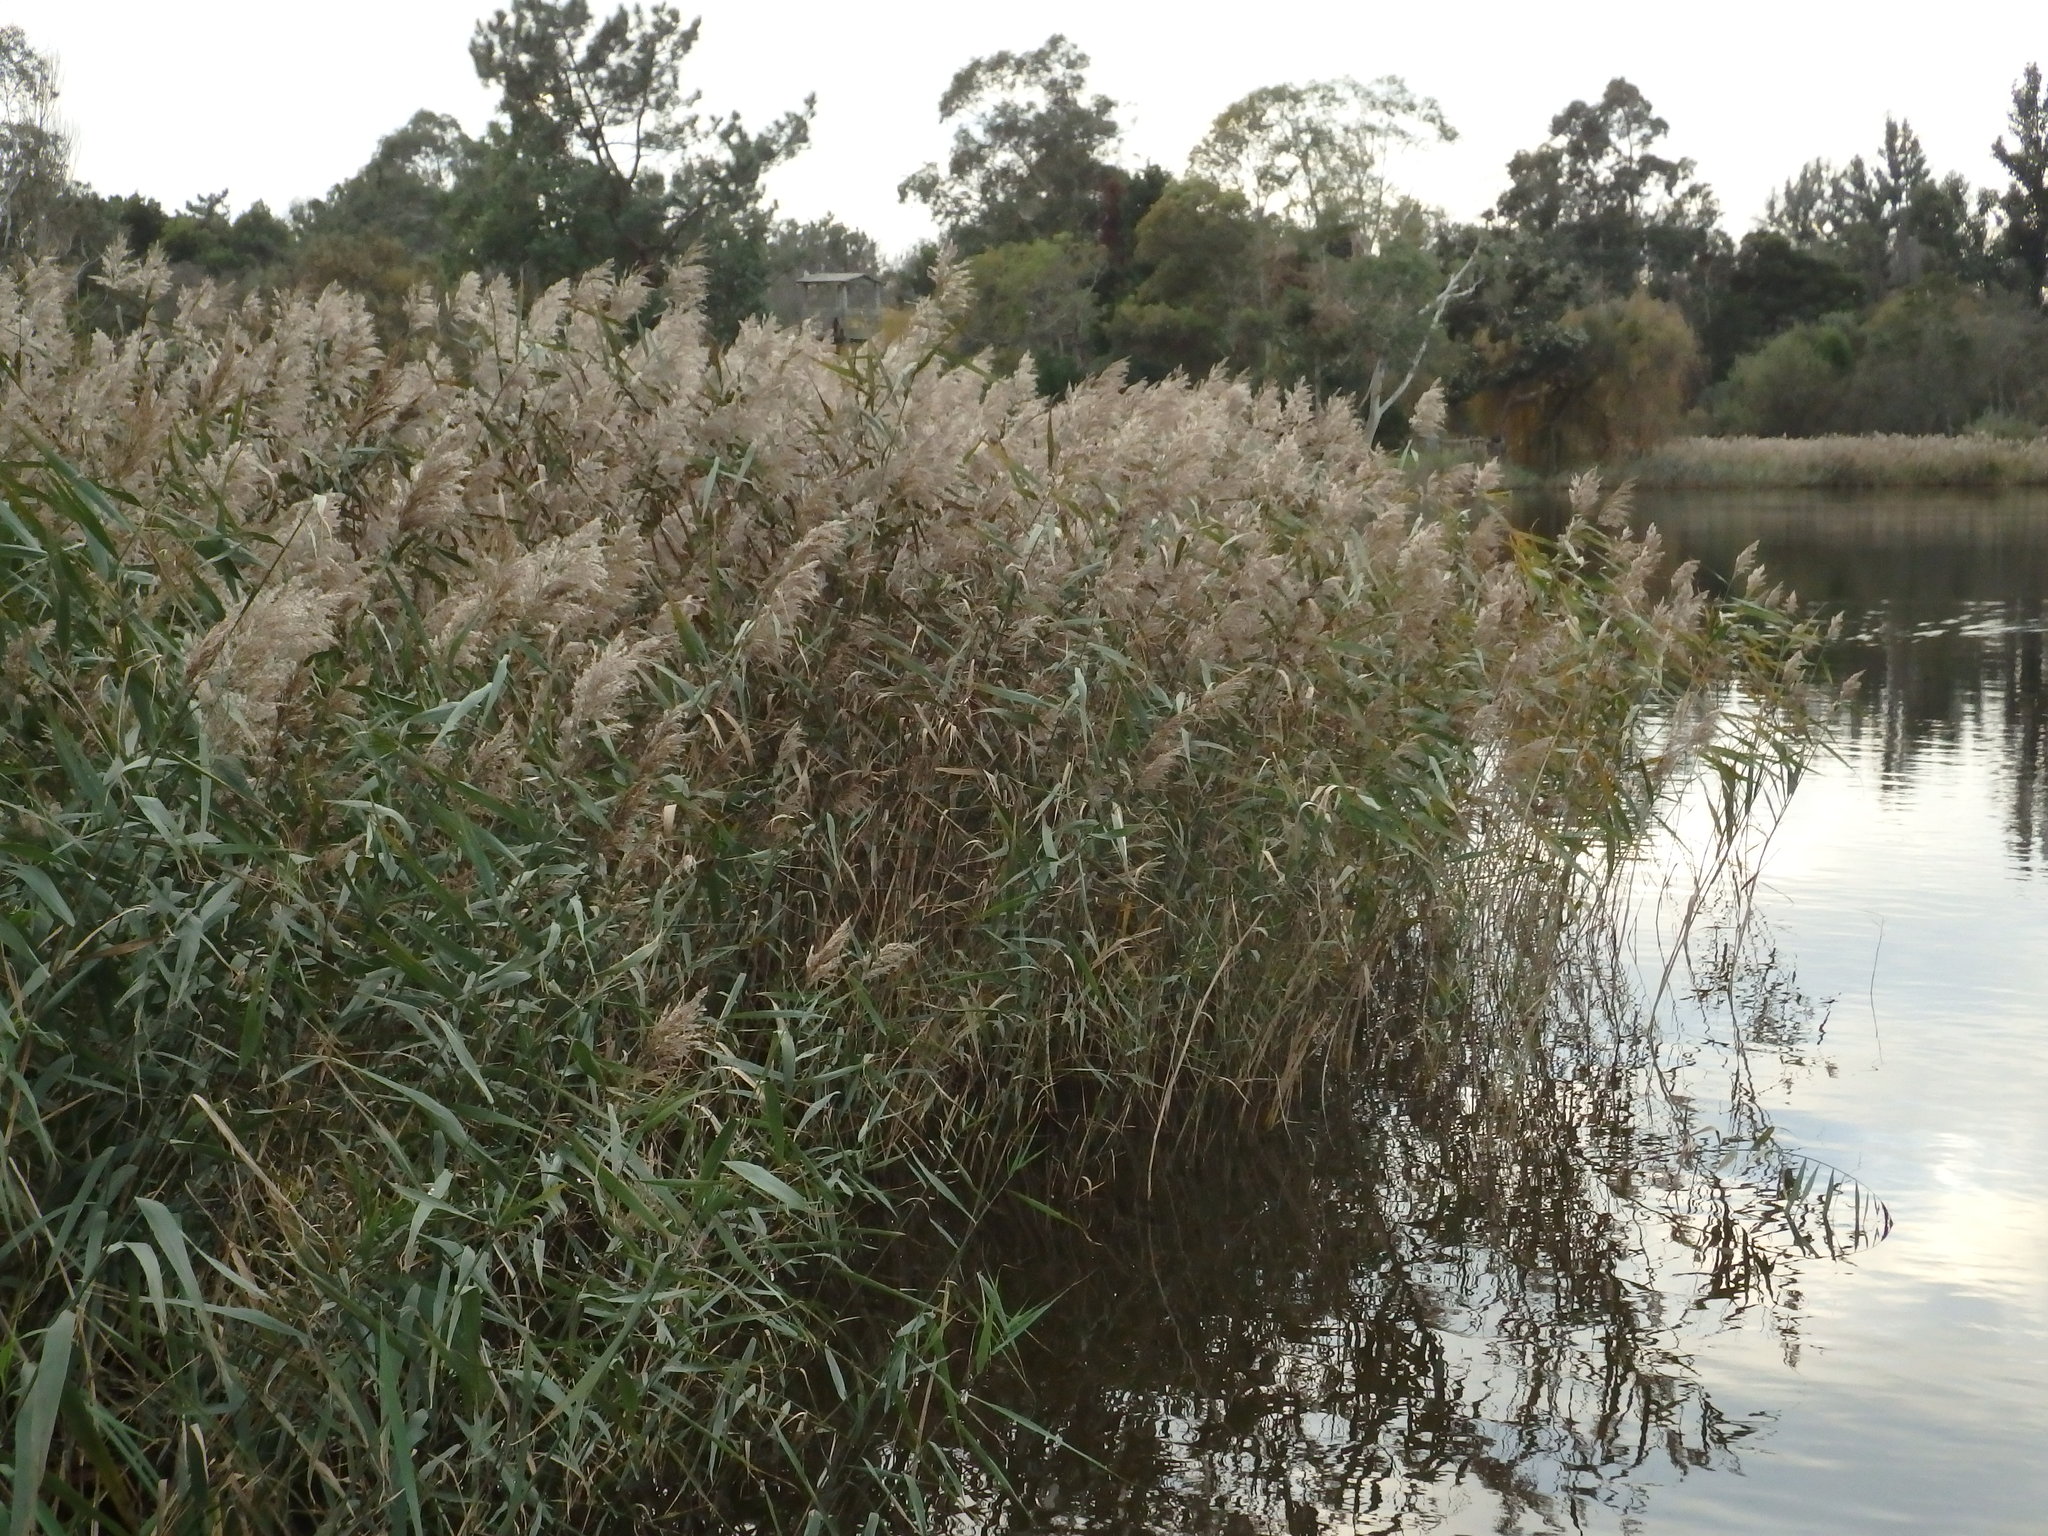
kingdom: Plantae
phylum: Tracheophyta
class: Liliopsida
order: Poales
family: Poaceae
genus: Phragmites
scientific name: Phragmites australis
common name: Common reed
